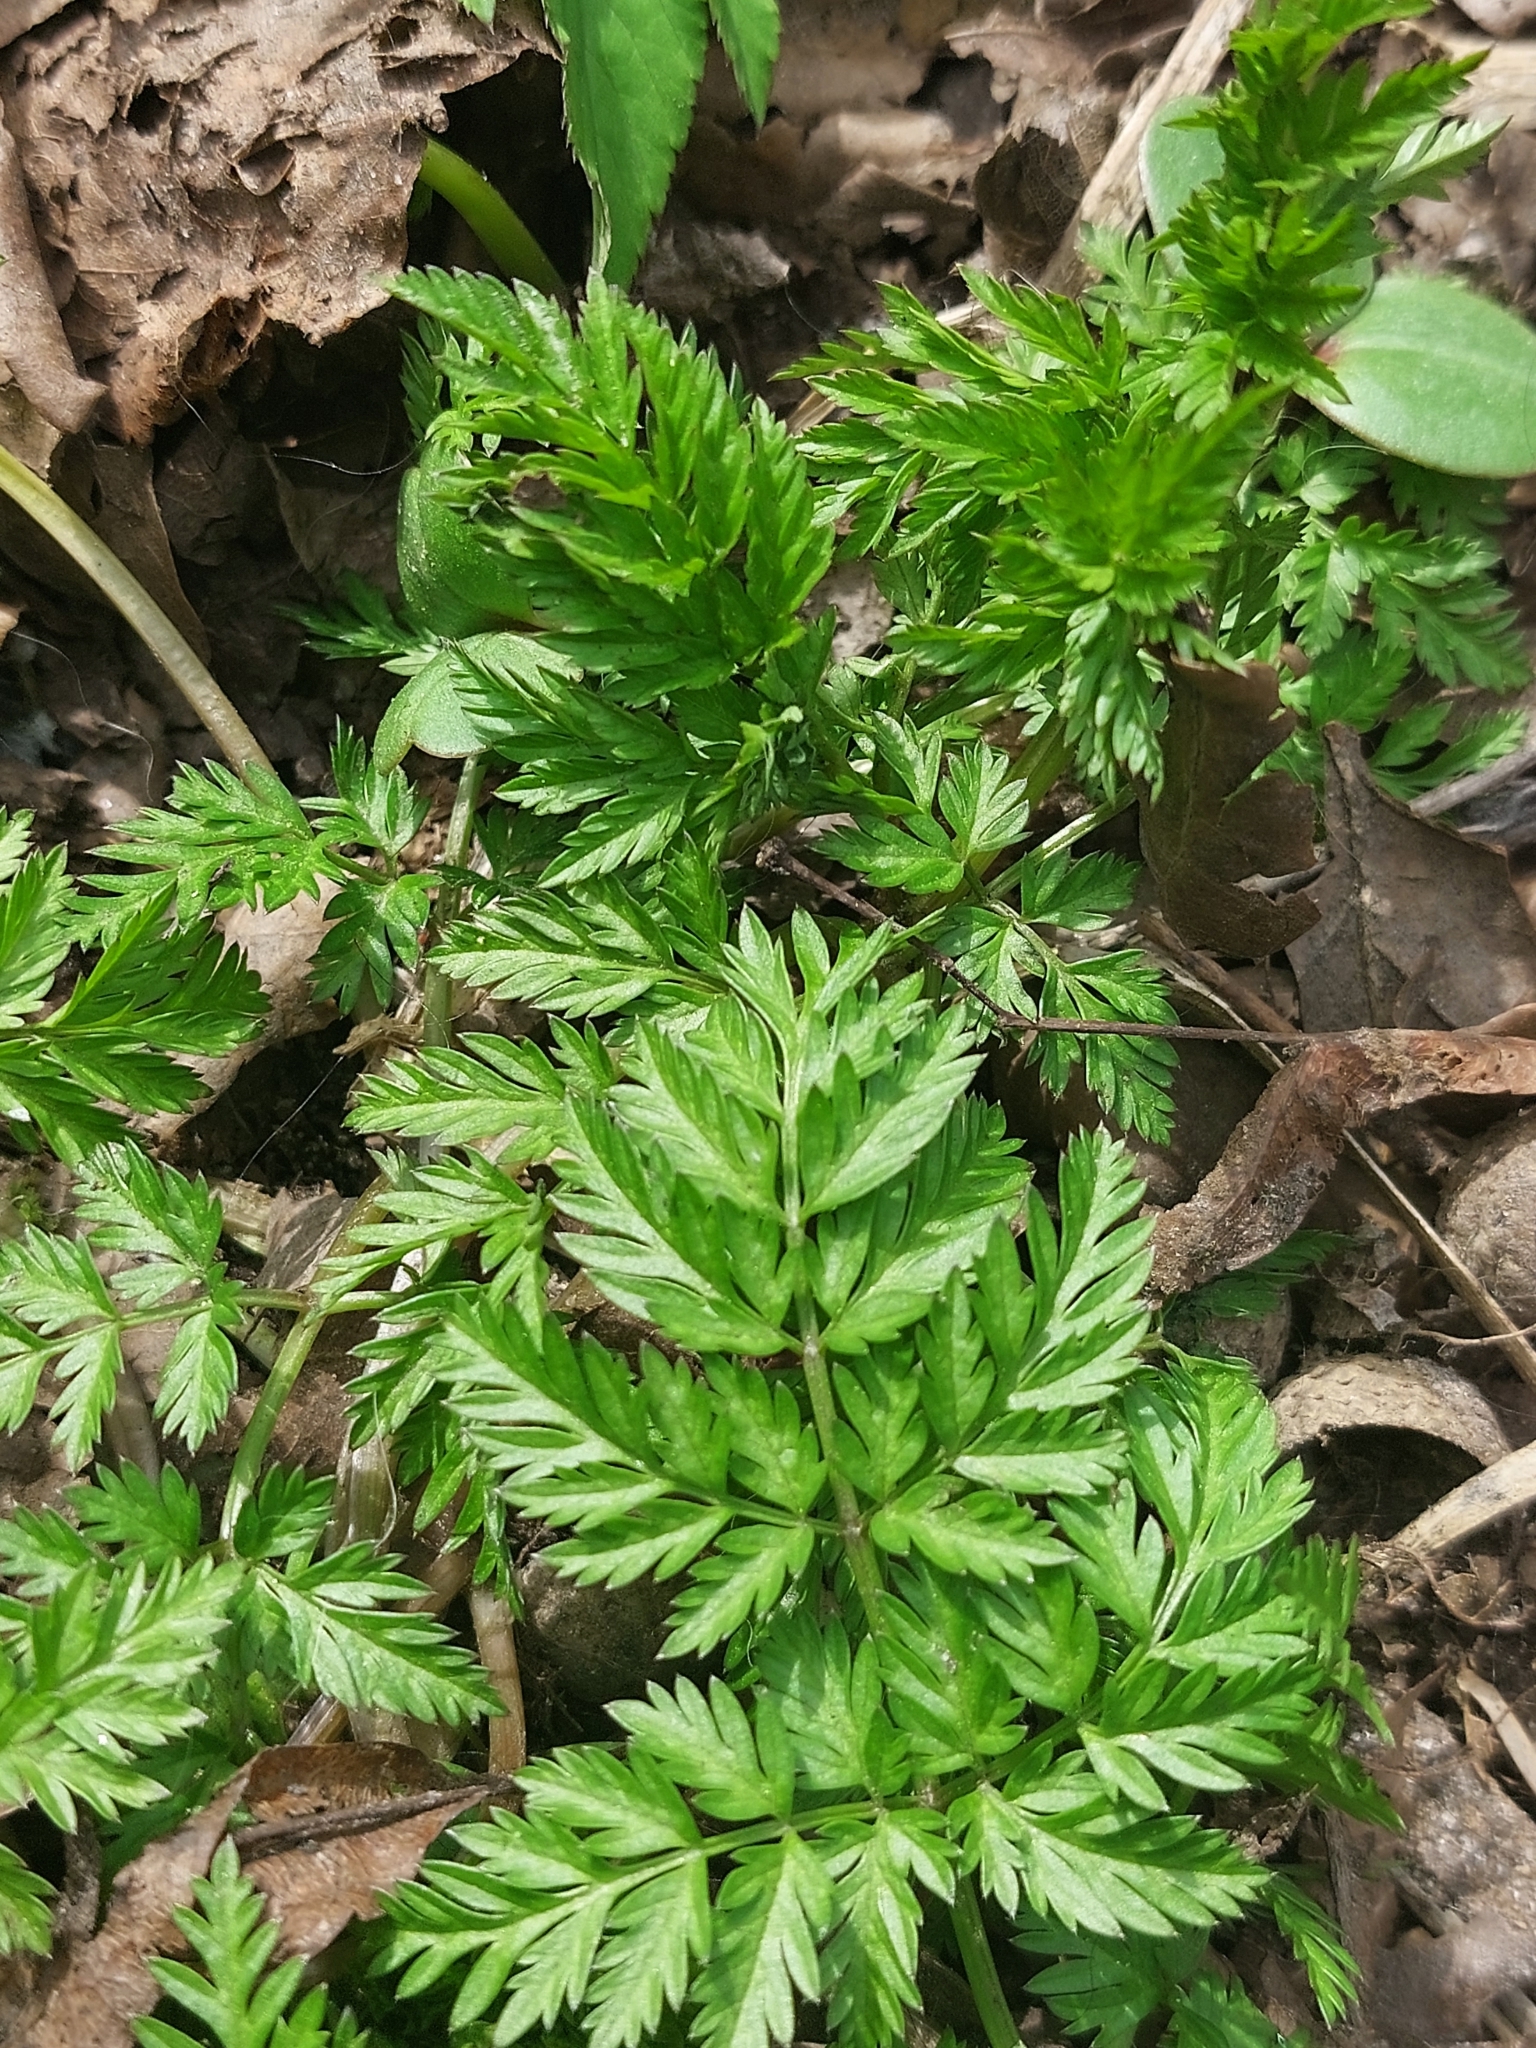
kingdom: Plantae
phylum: Tracheophyta
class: Magnoliopsida
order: Apiales
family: Apiaceae
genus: Anthriscus
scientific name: Anthriscus sylvestris
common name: Cow parsley
